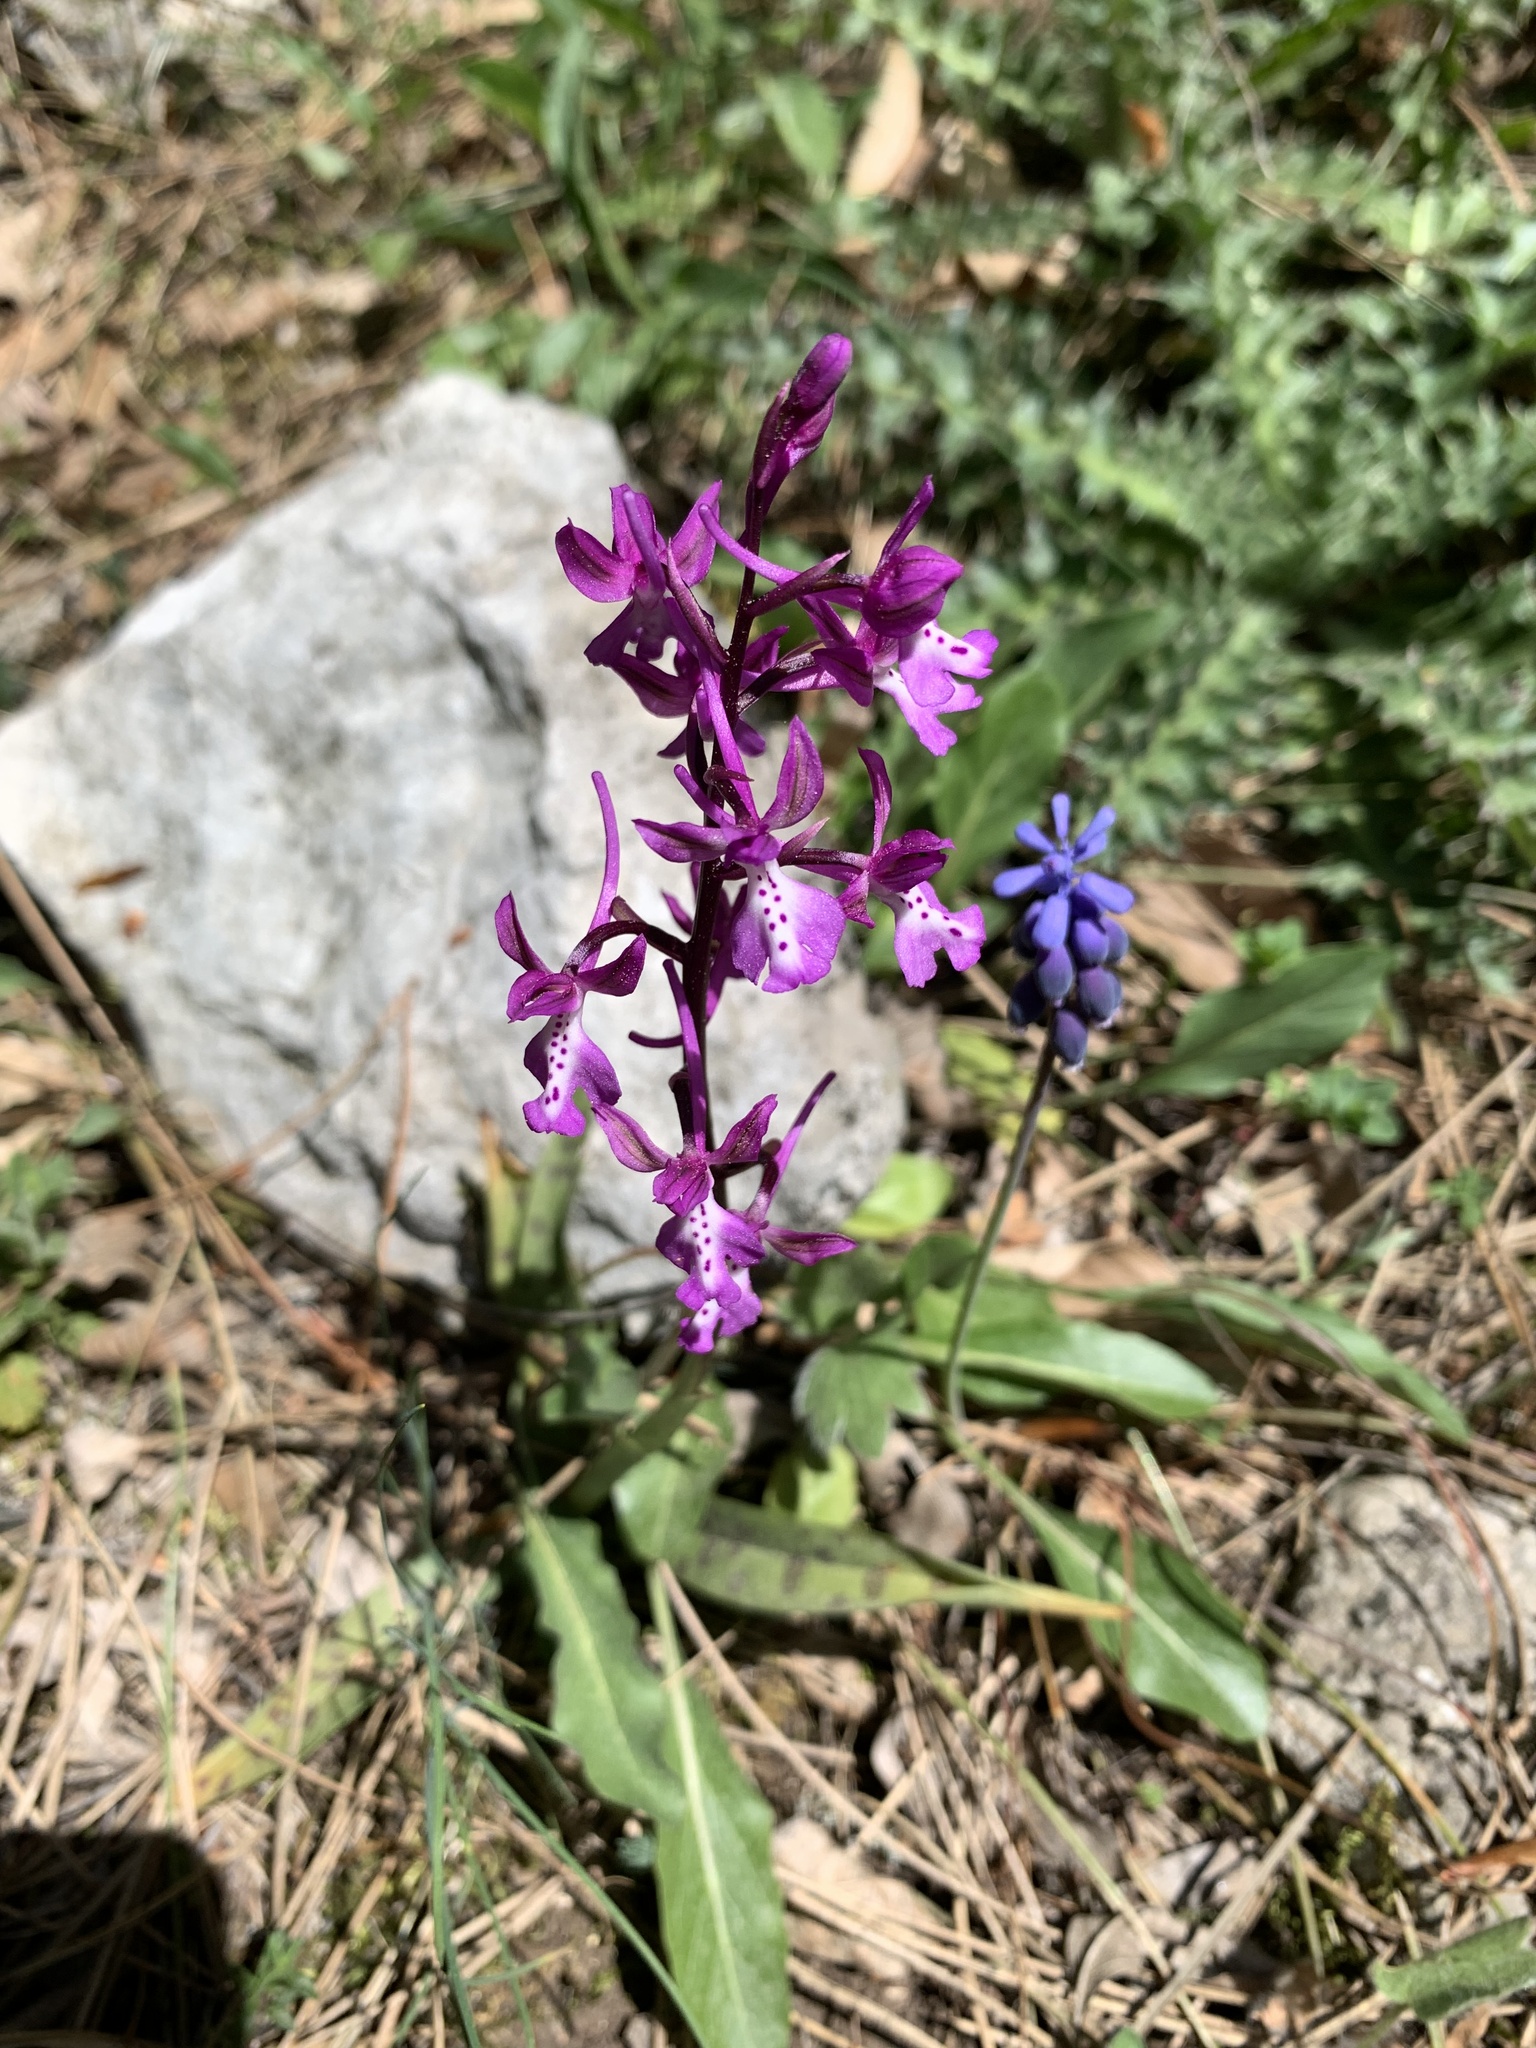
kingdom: Plantae
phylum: Tracheophyta
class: Liliopsida
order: Asparagales
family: Orchidaceae
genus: Orchis
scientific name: Orchis anatolica
